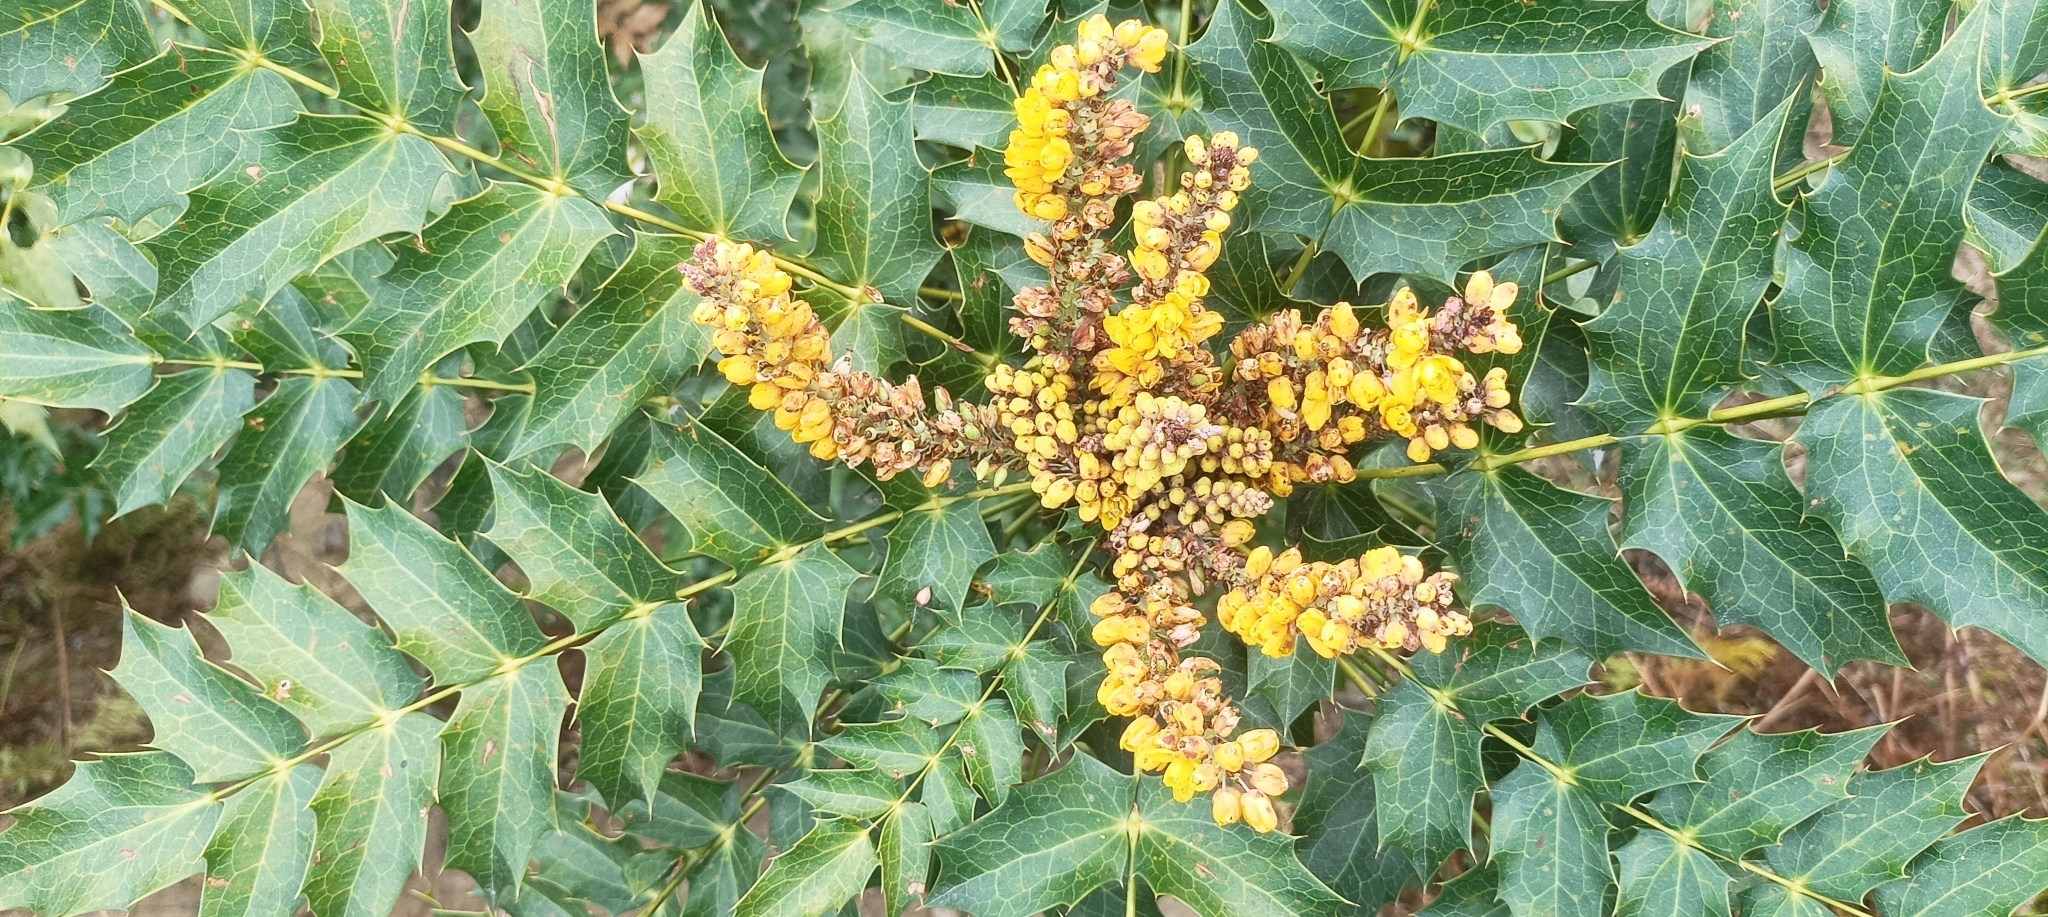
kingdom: Plantae
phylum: Tracheophyta
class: Magnoliopsida
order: Ranunculales
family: Berberidaceae
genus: Mahonia
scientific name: Mahonia napaulensis
